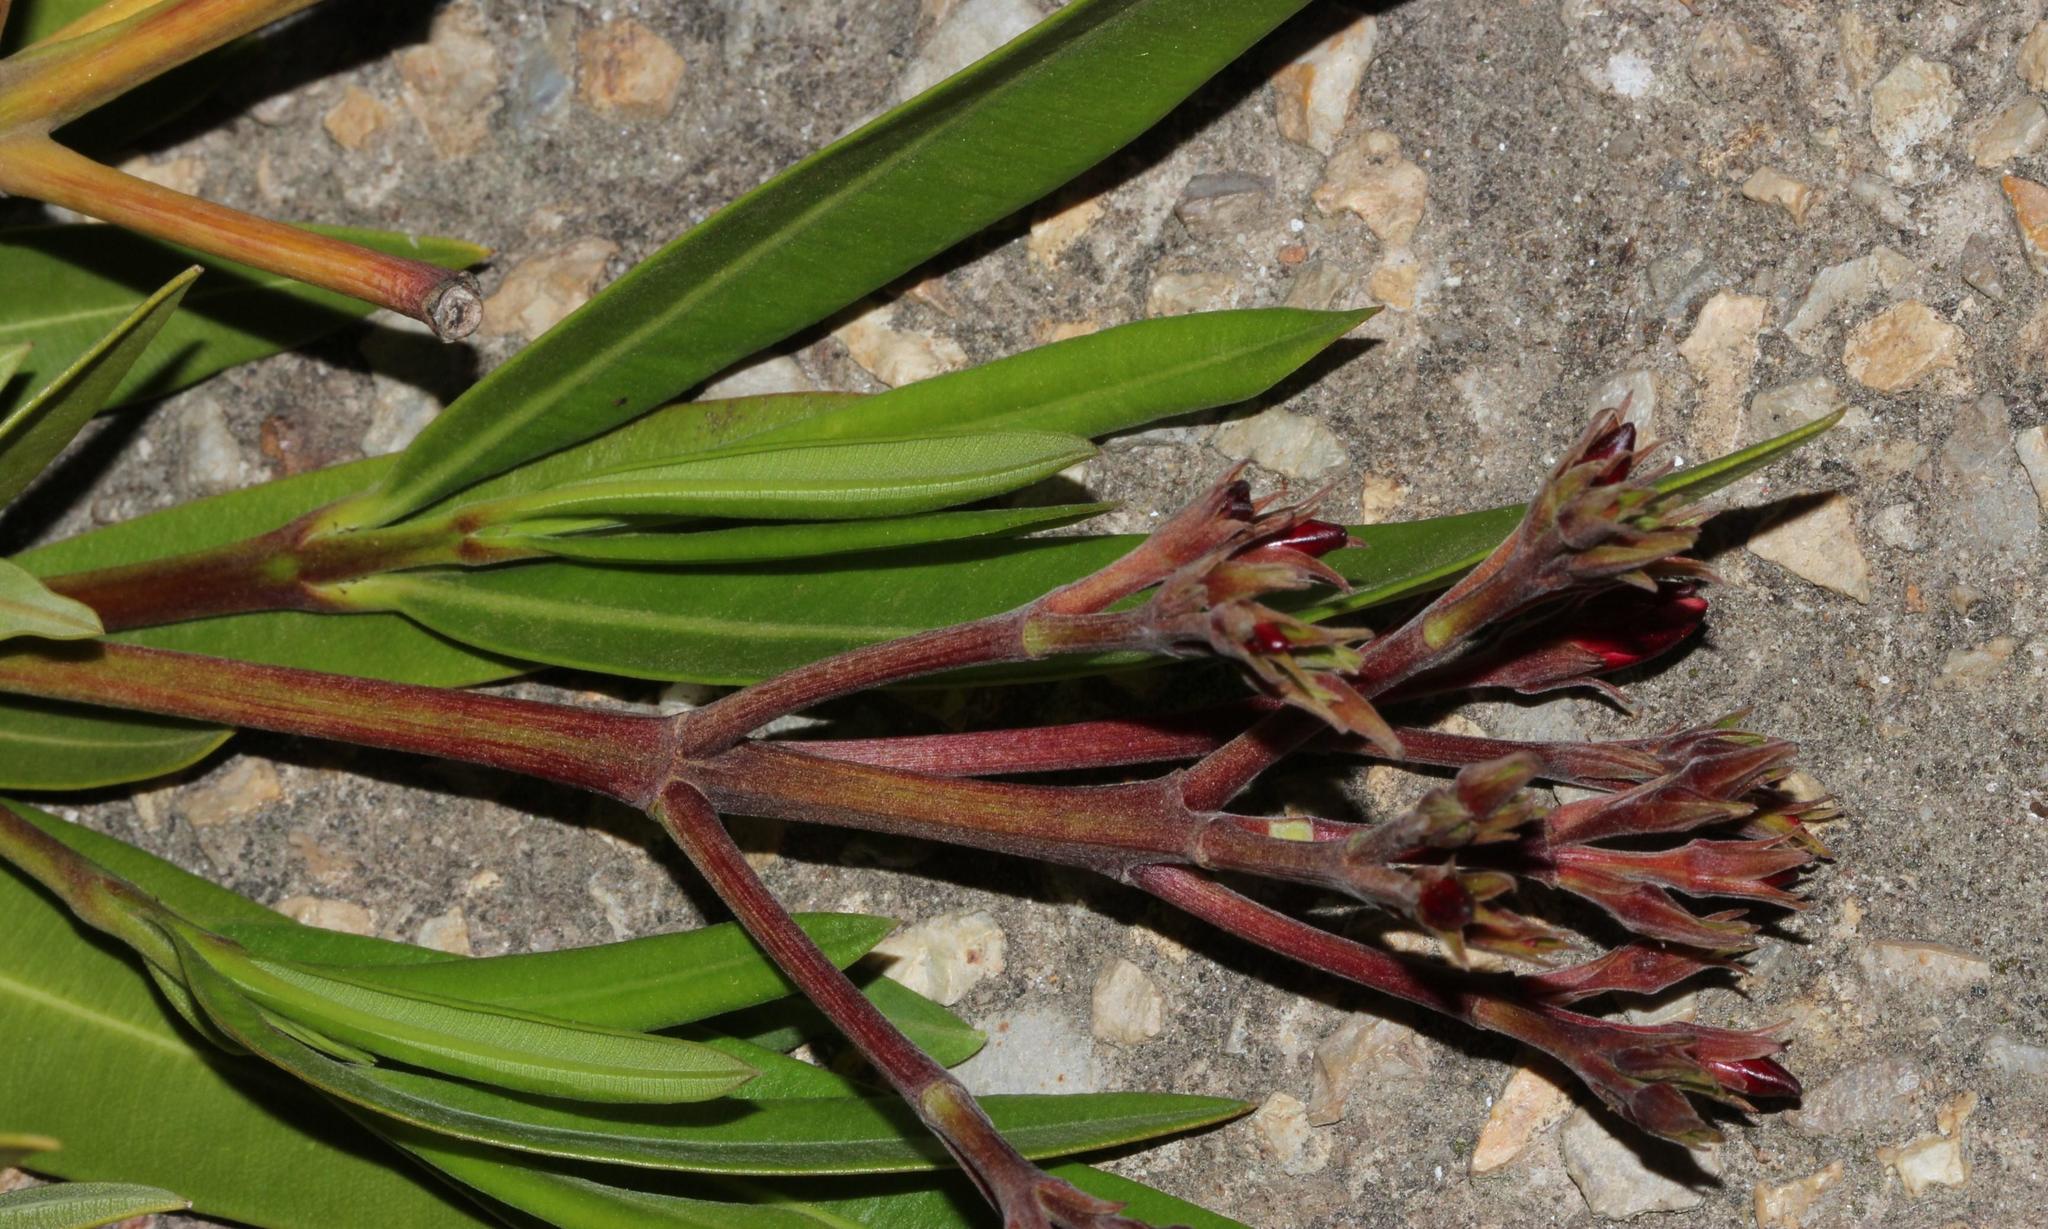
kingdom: Plantae
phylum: Tracheophyta
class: Magnoliopsida
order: Gentianales
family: Apocynaceae
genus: Nerium
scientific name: Nerium oleander
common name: Oleander
